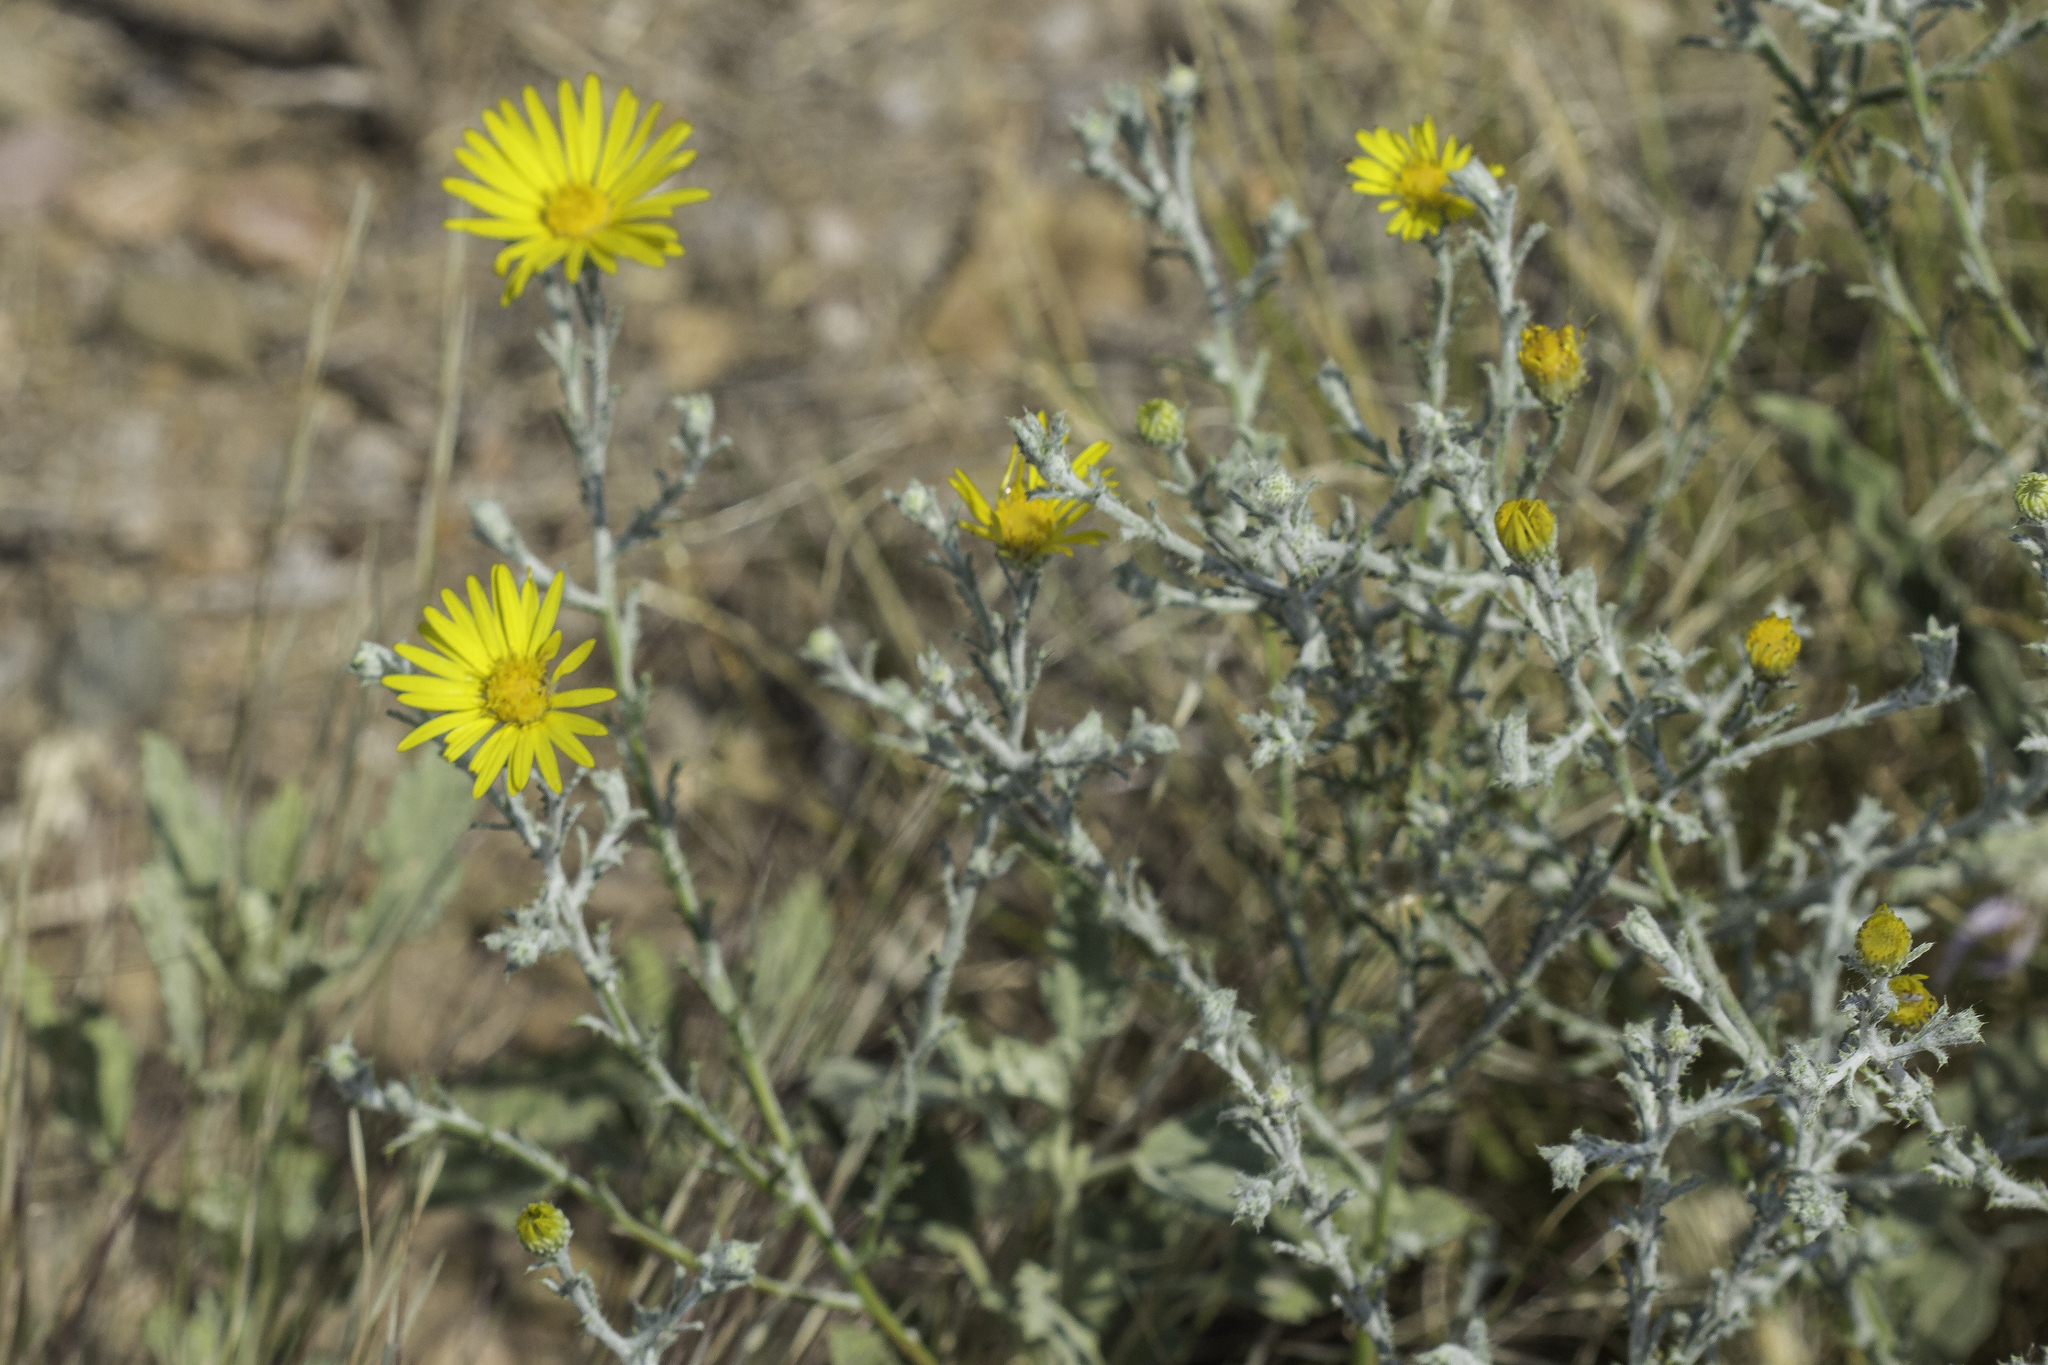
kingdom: Plantae
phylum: Tracheophyta
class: Magnoliopsida
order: Asterales
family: Asteraceae
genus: Xanthisma
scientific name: Xanthisma spinulosum
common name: Spiny goldenweed
